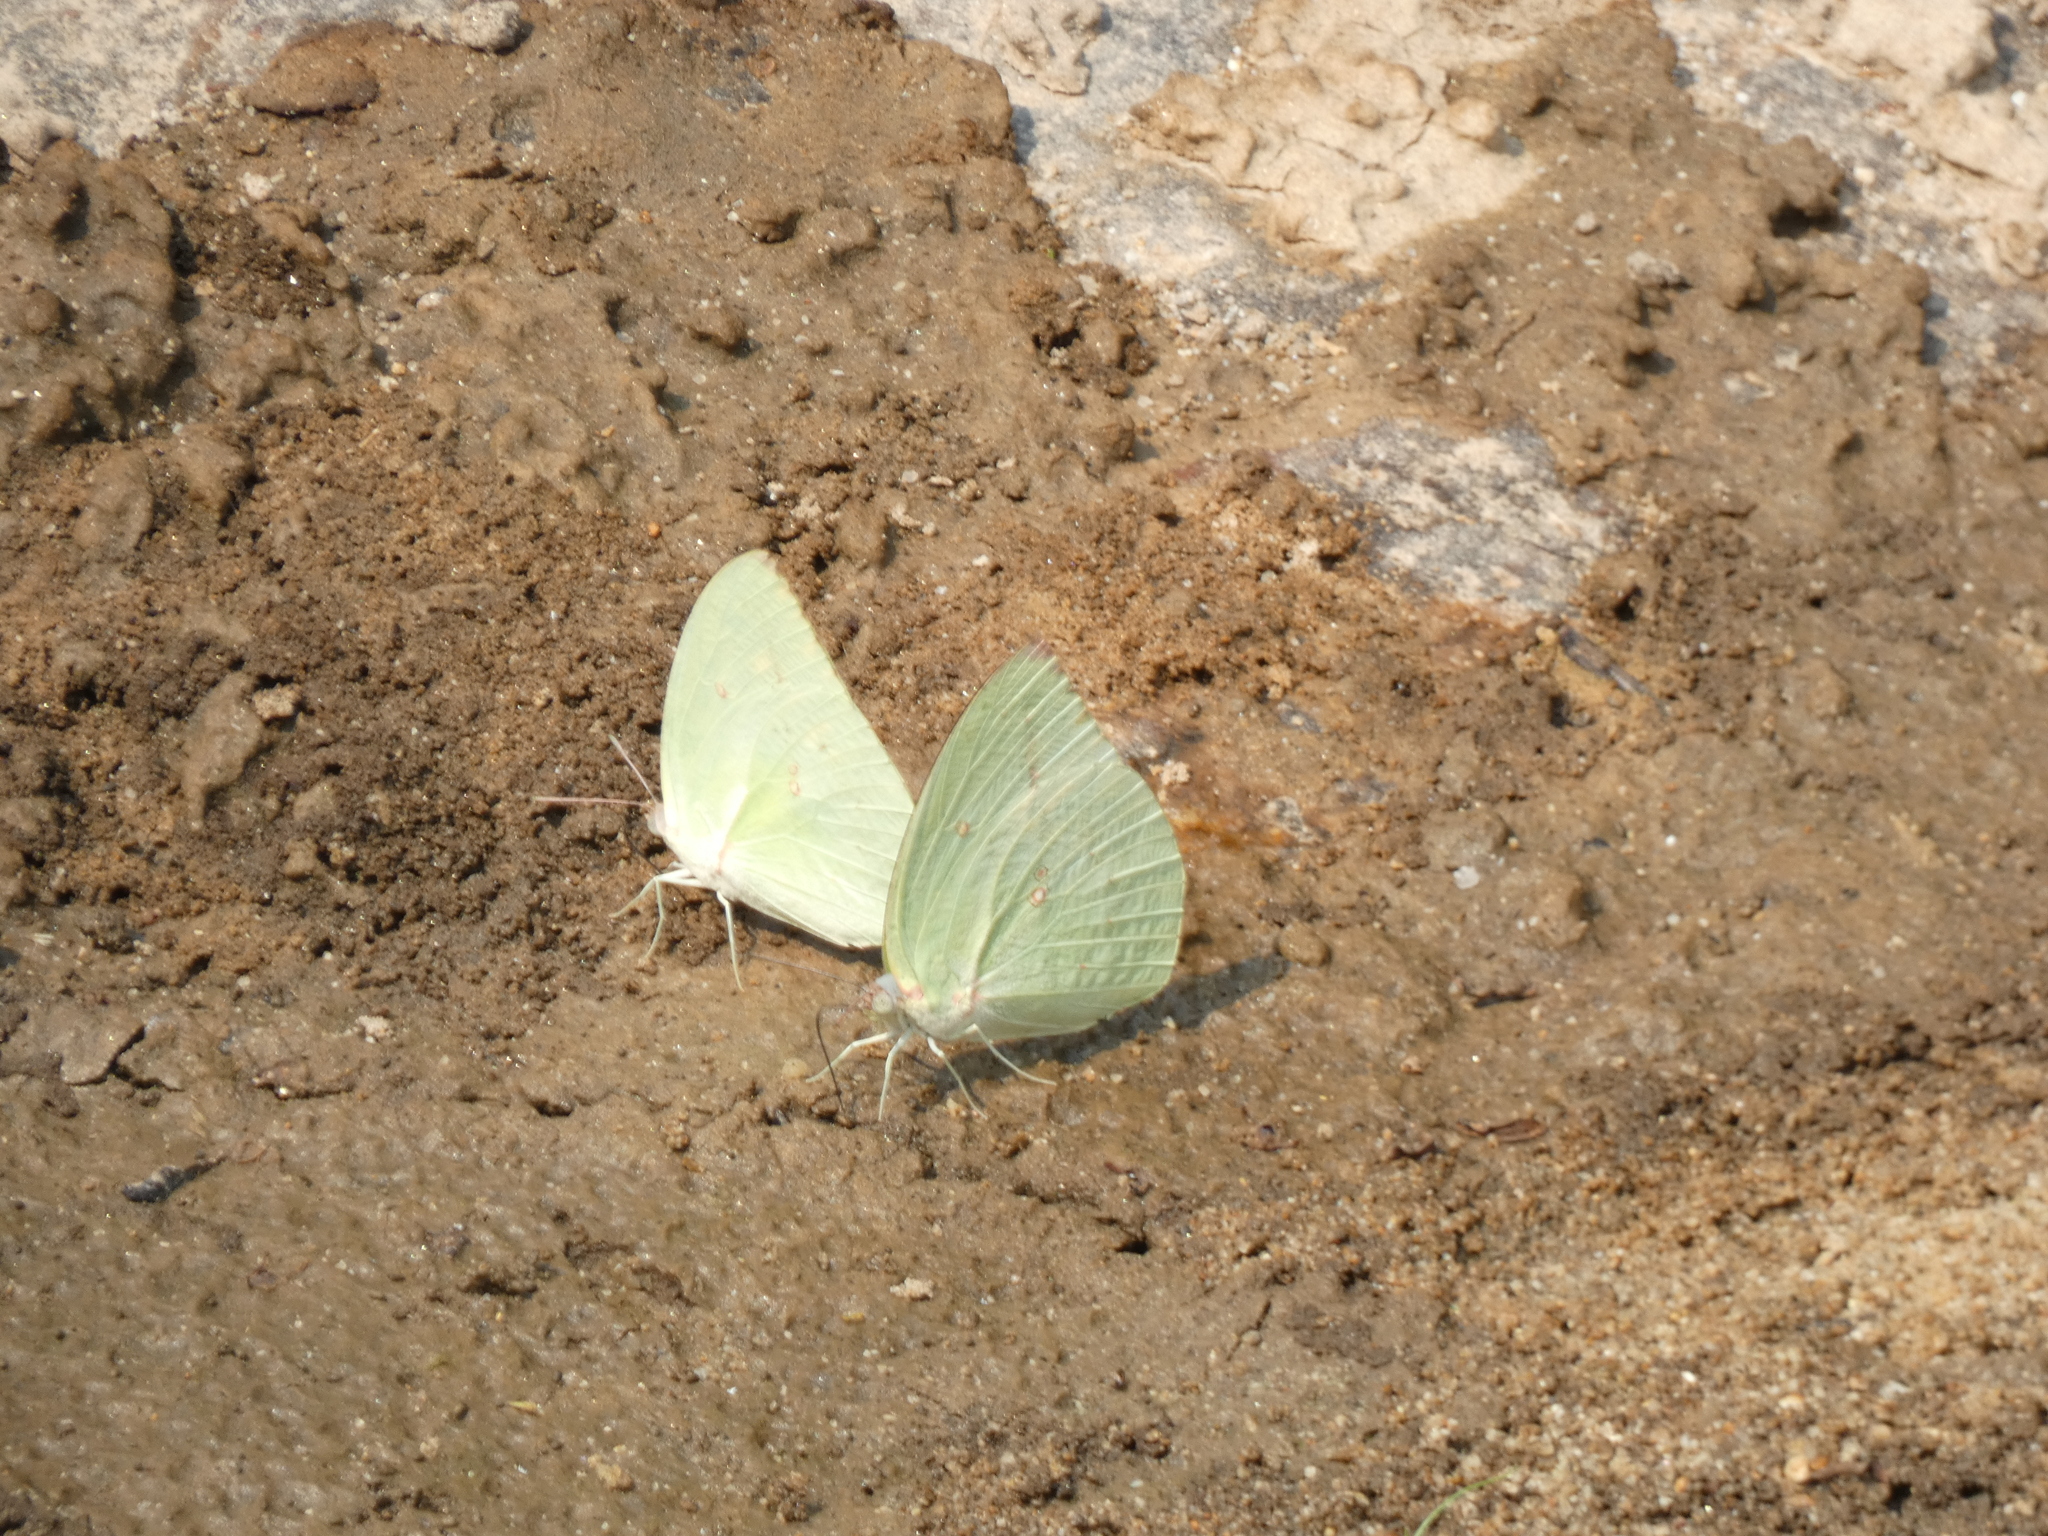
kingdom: Animalia
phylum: Arthropoda
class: Insecta
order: Lepidoptera
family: Pieridae
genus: Catopsilia
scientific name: Catopsilia pomona
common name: Common emigrant
